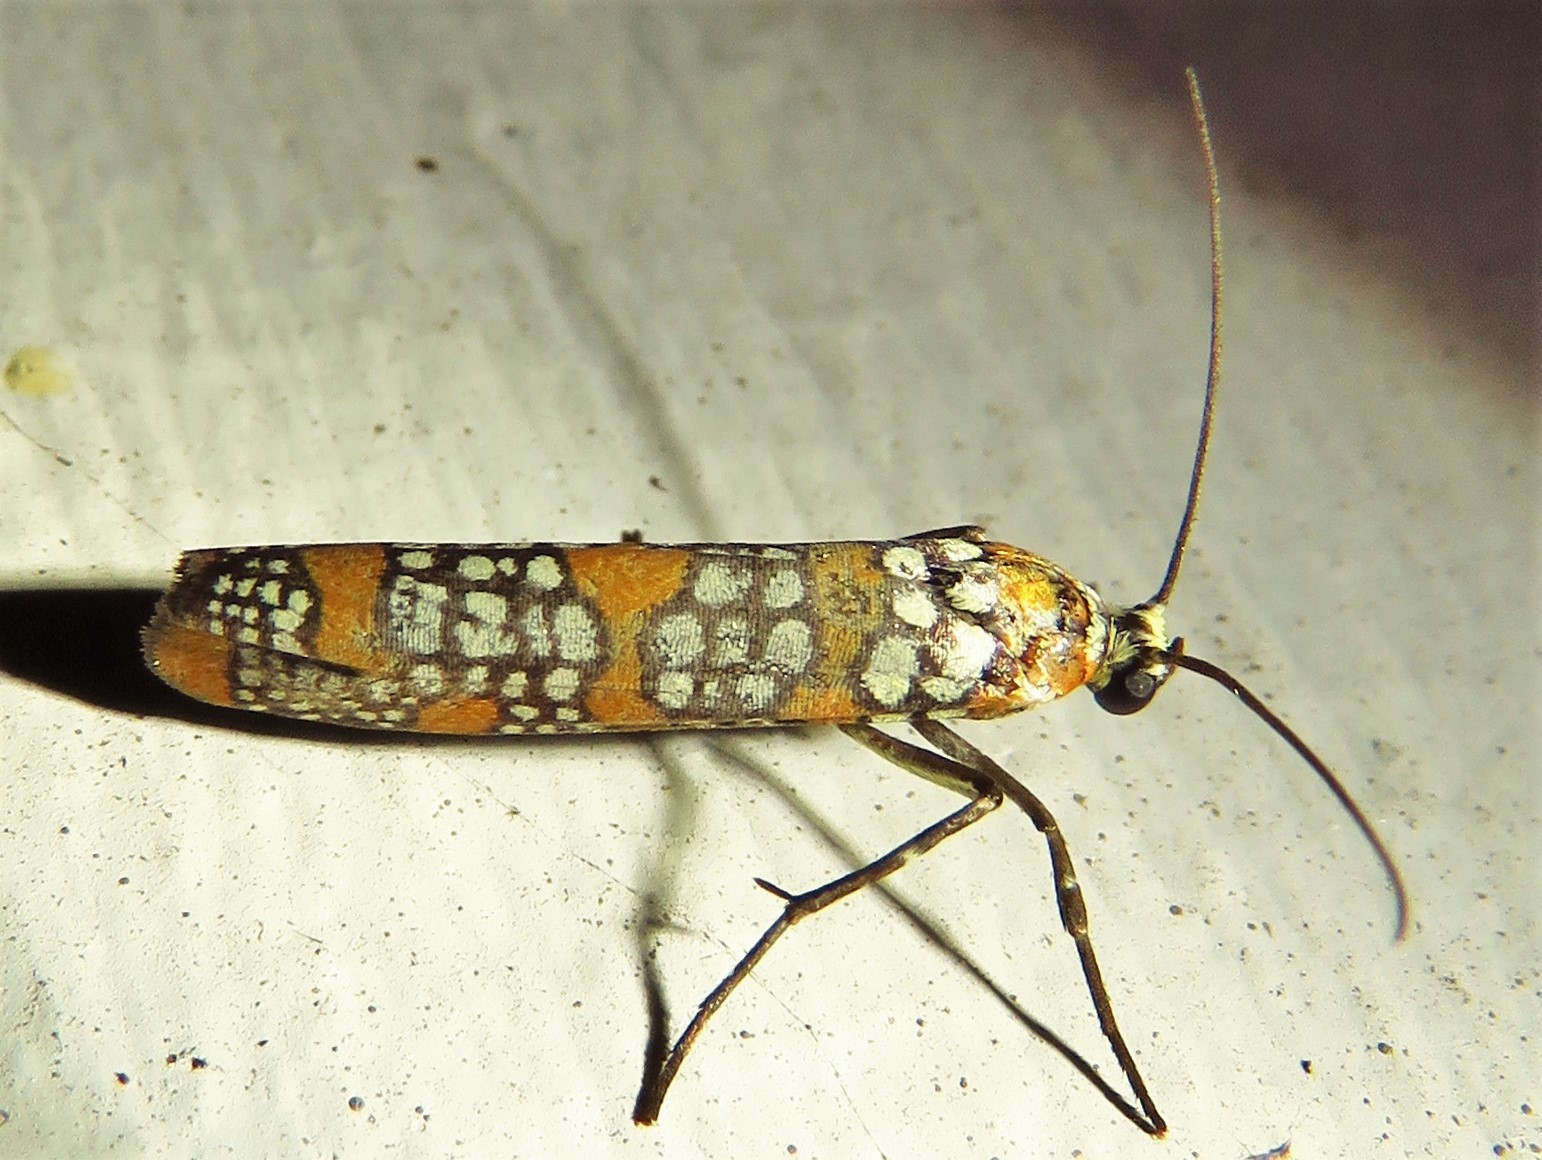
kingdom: Animalia
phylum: Arthropoda
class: Insecta
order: Lepidoptera
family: Attevidae
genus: Atteva
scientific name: Atteva punctella
